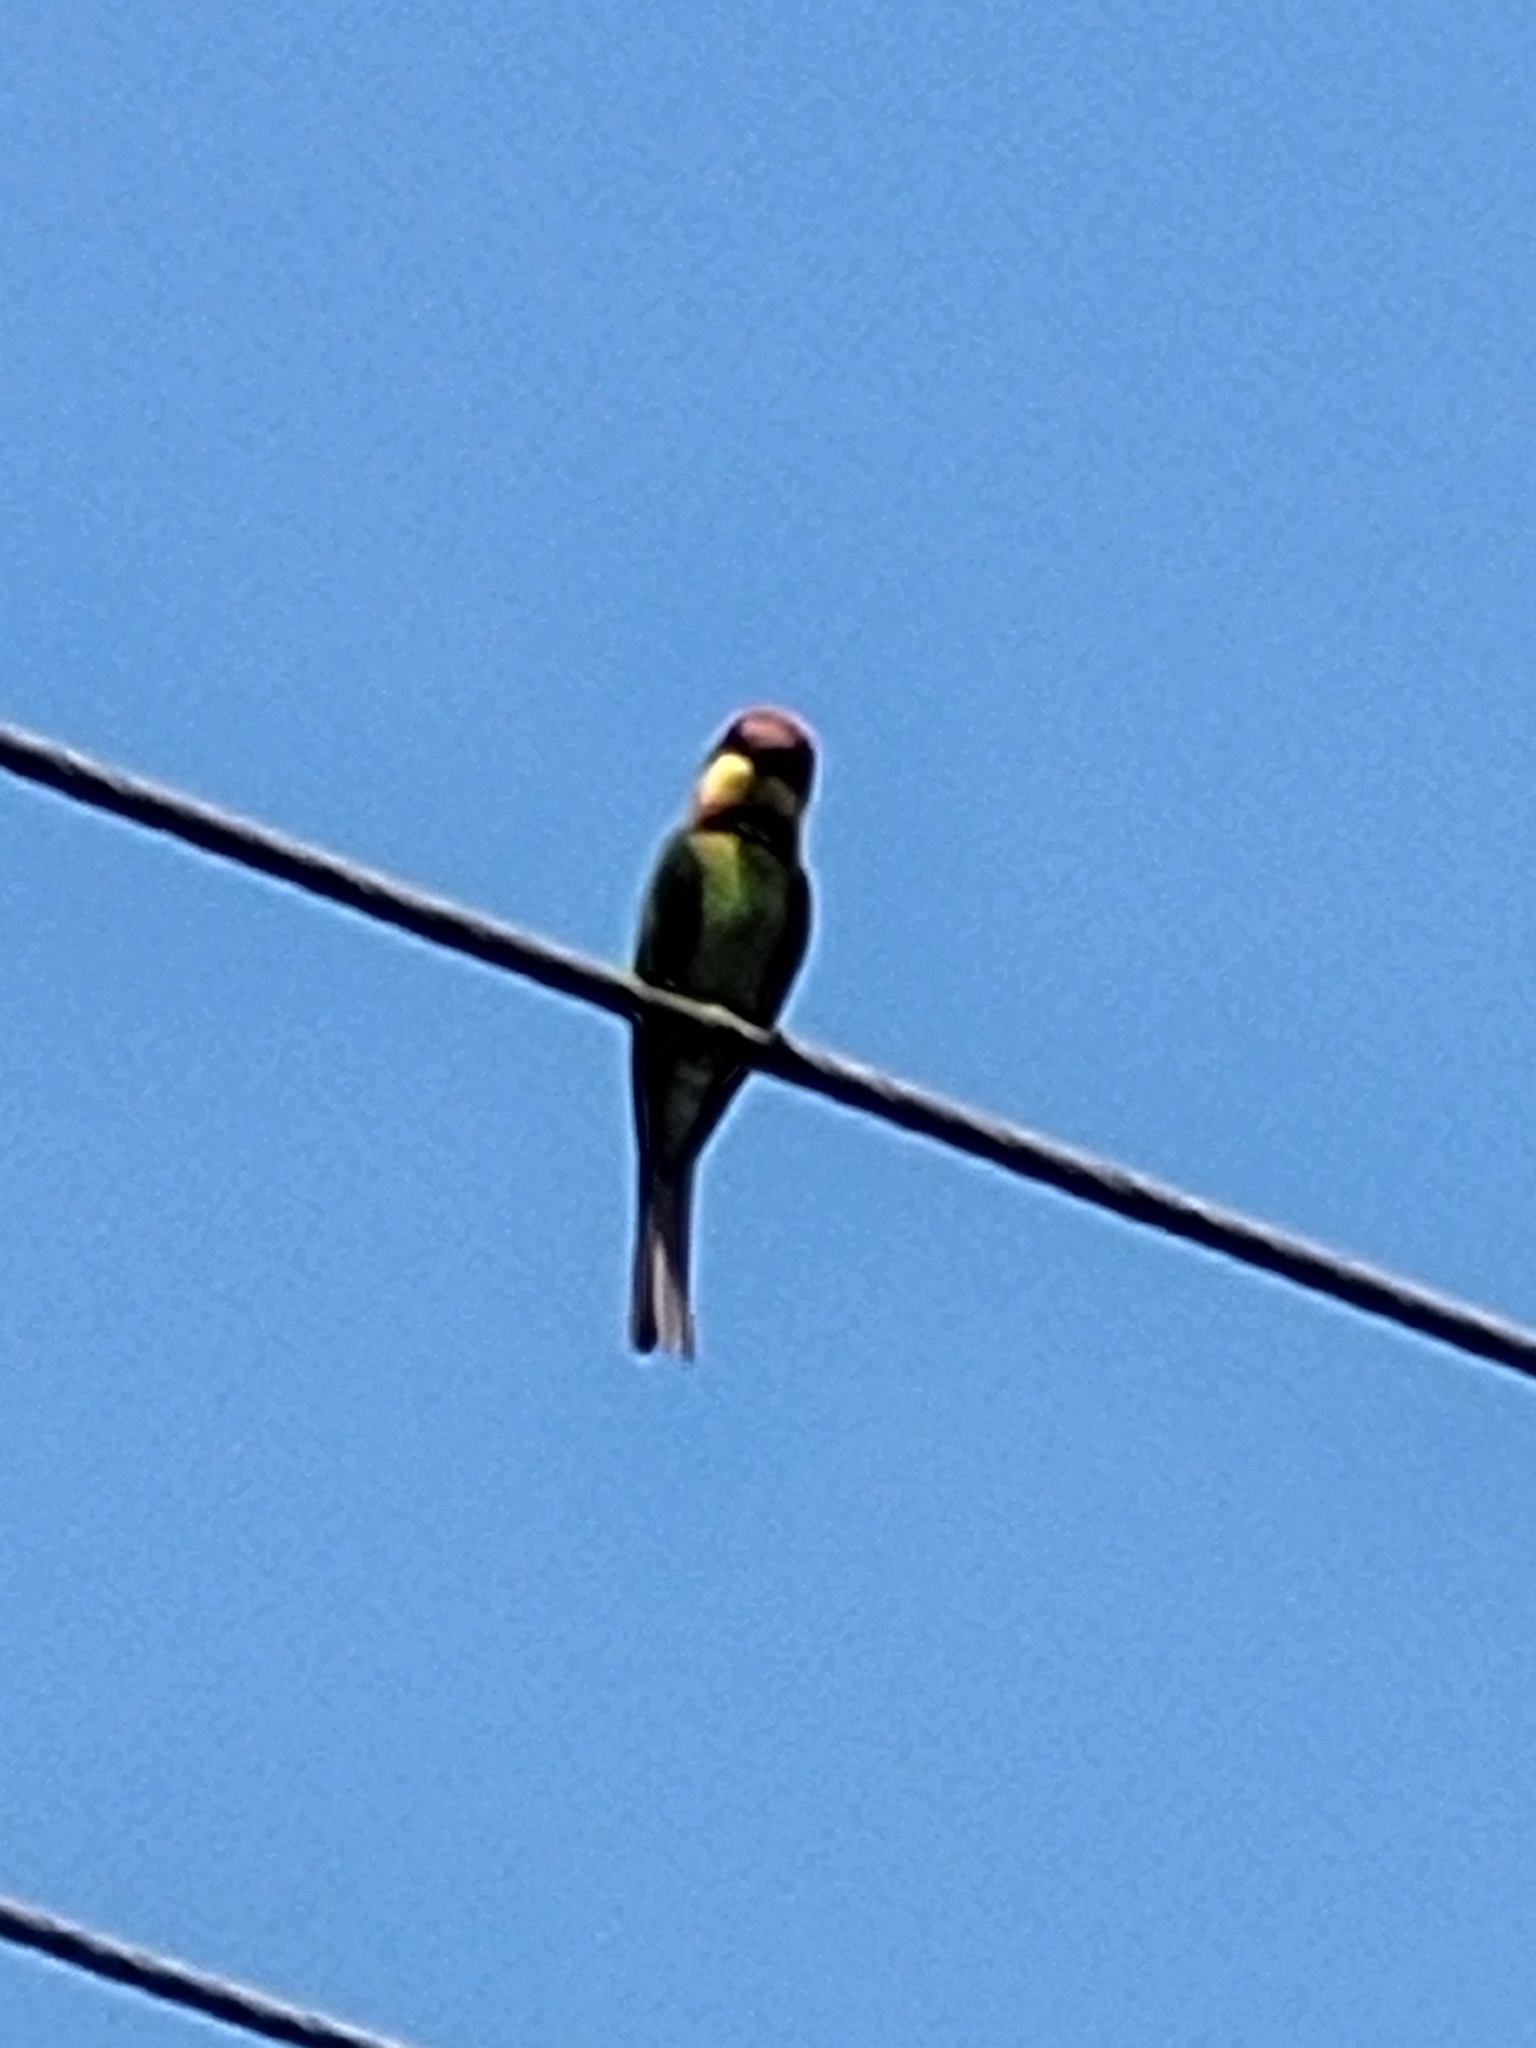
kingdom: Animalia
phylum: Chordata
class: Aves
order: Coraciiformes
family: Meropidae
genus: Merops
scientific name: Merops leschenaulti
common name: Chestnut-headed bee-eater
